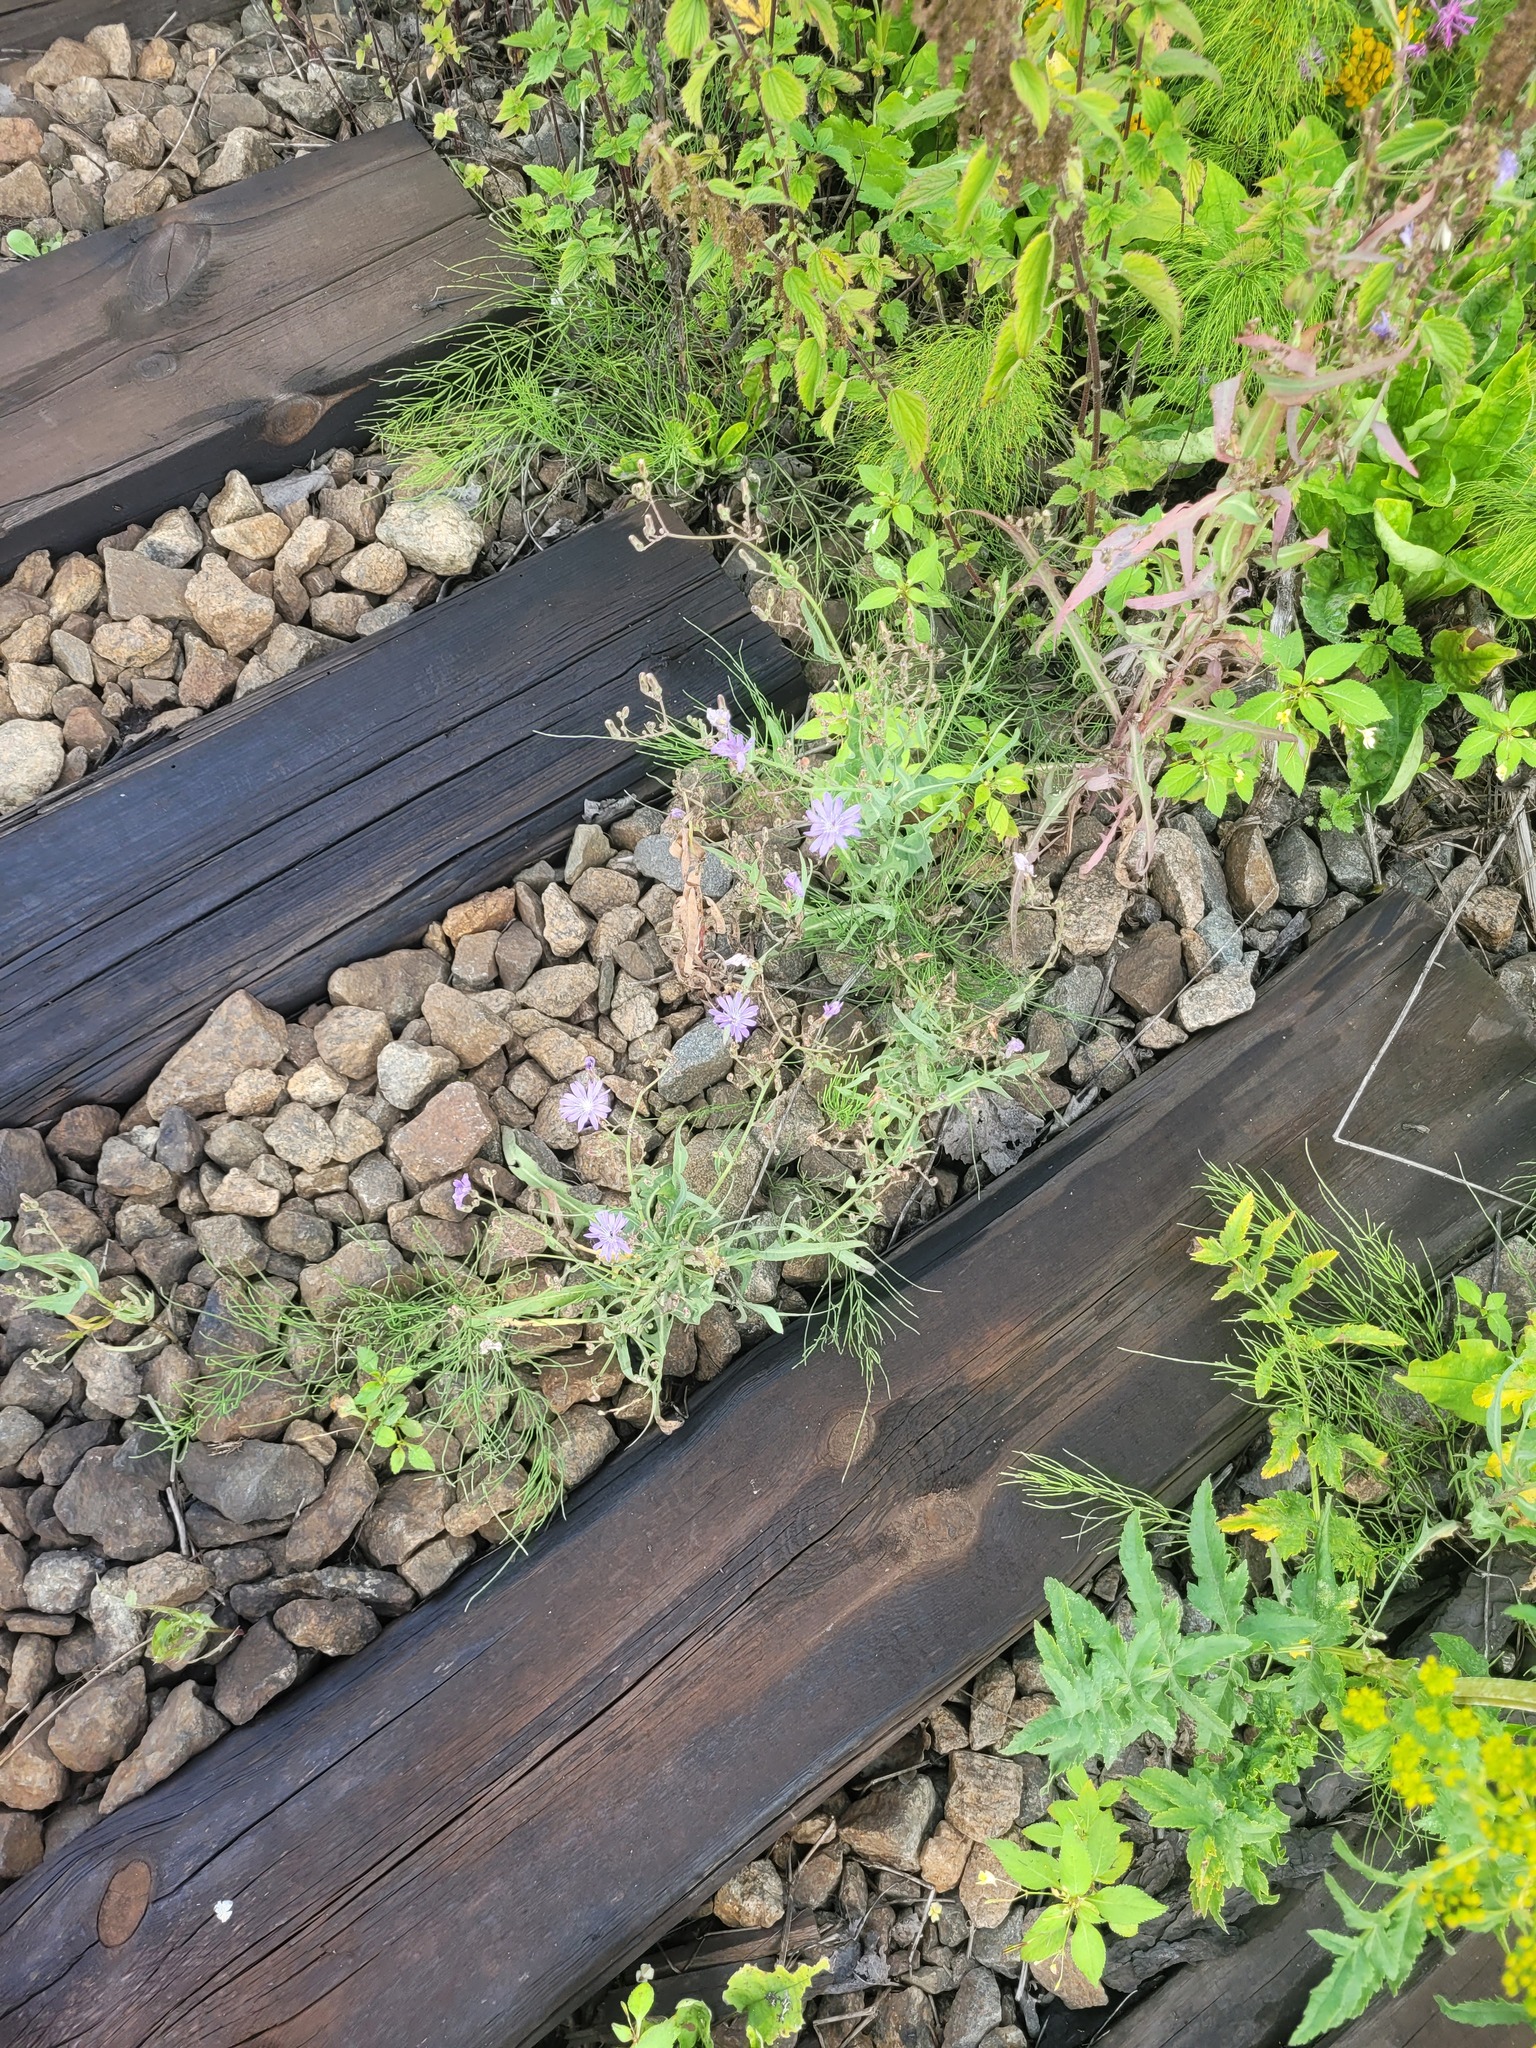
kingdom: Plantae
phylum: Tracheophyta
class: Magnoliopsida
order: Asterales
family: Asteraceae
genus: Lactuca
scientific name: Lactuca tatarica
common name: Blue lettuce
